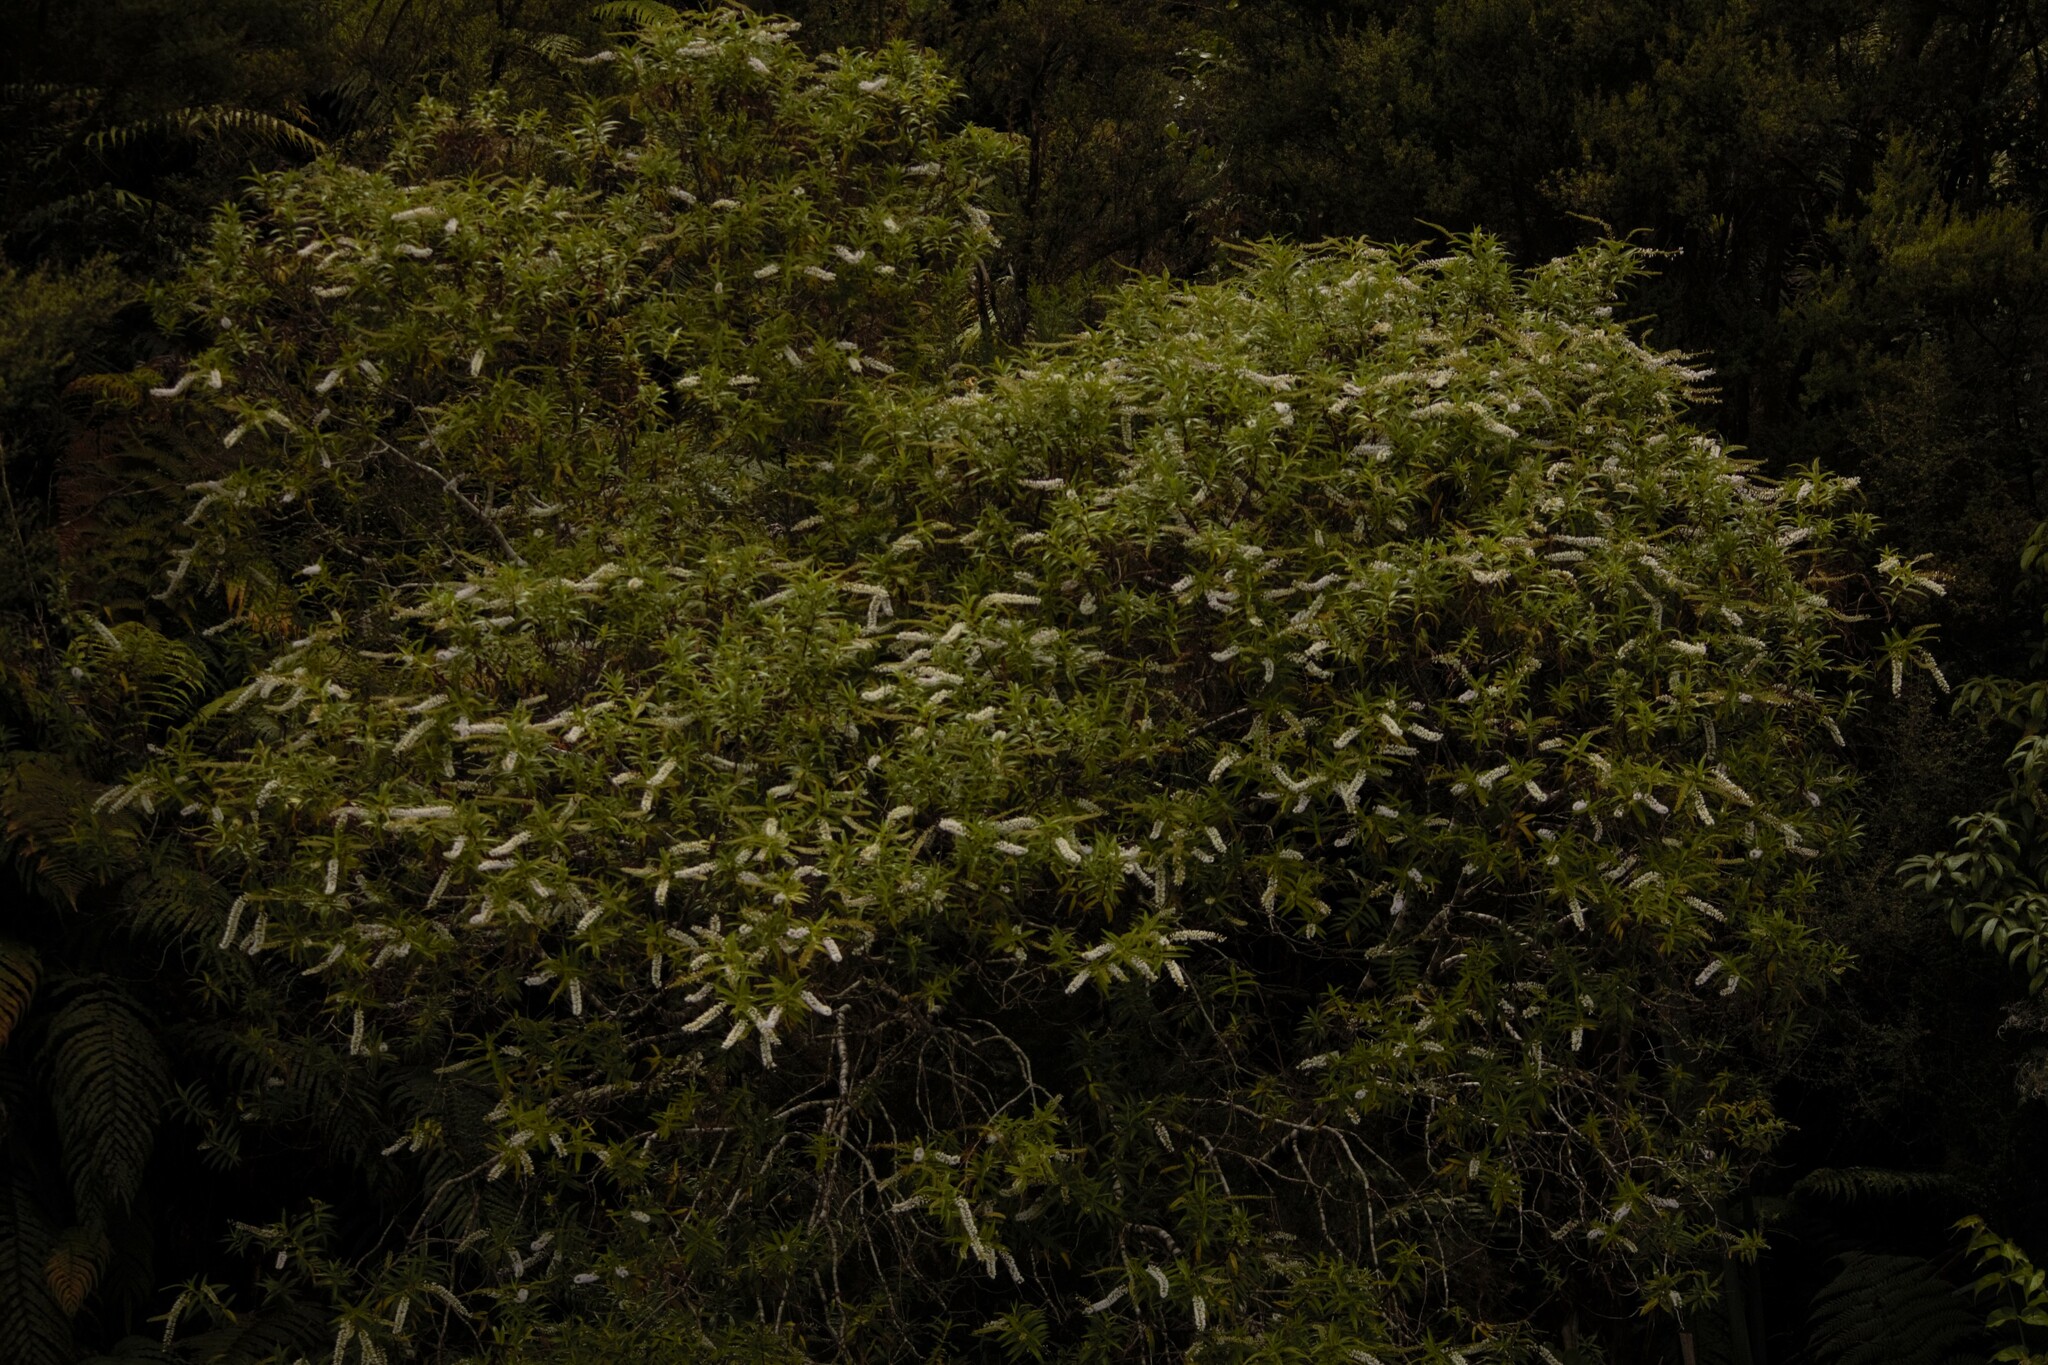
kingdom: Plantae
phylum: Tracheophyta
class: Magnoliopsida
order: Lamiales
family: Plantaginaceae
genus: Veronica
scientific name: Veronica salicifolia
